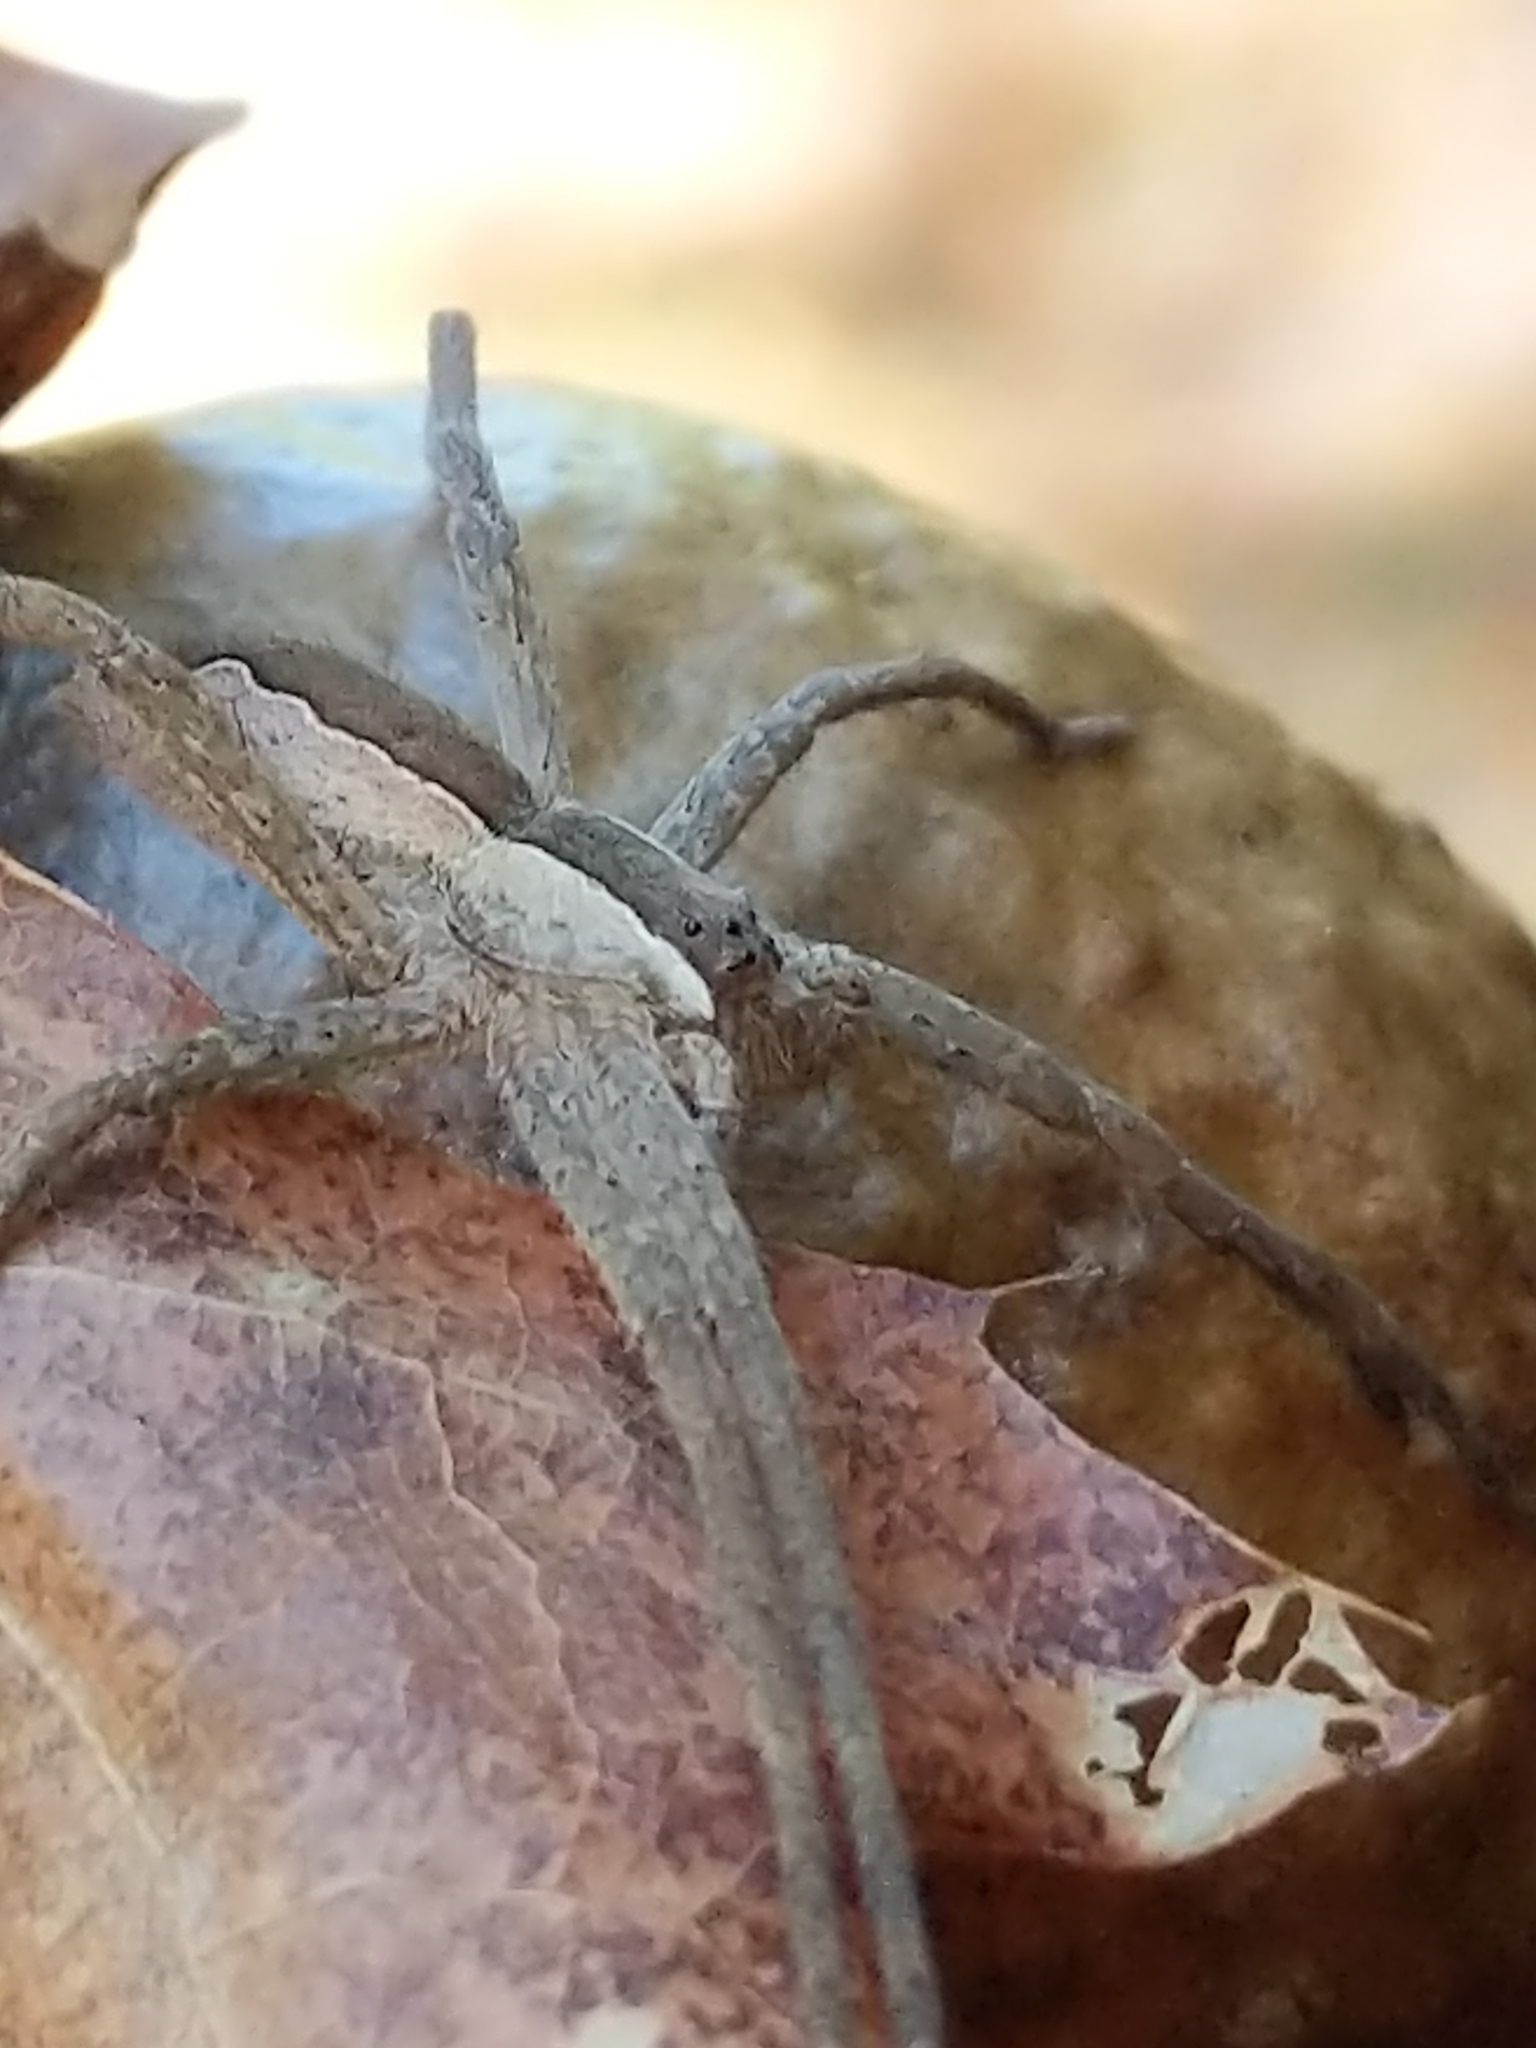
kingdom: Animalia
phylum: Arthropoda
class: Arachnida
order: Araneae
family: Pisauridae
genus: Pisaurina
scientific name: Pisaurina mira
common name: American nursery web spider
